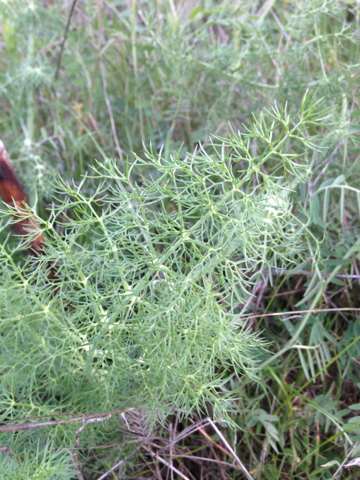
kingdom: Plantae
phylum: Tracheophyta
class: Magnoliopsida
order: Apiales
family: Apiaceae
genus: Foeniculum
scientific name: Foeniculum vulgare
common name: Fennel
